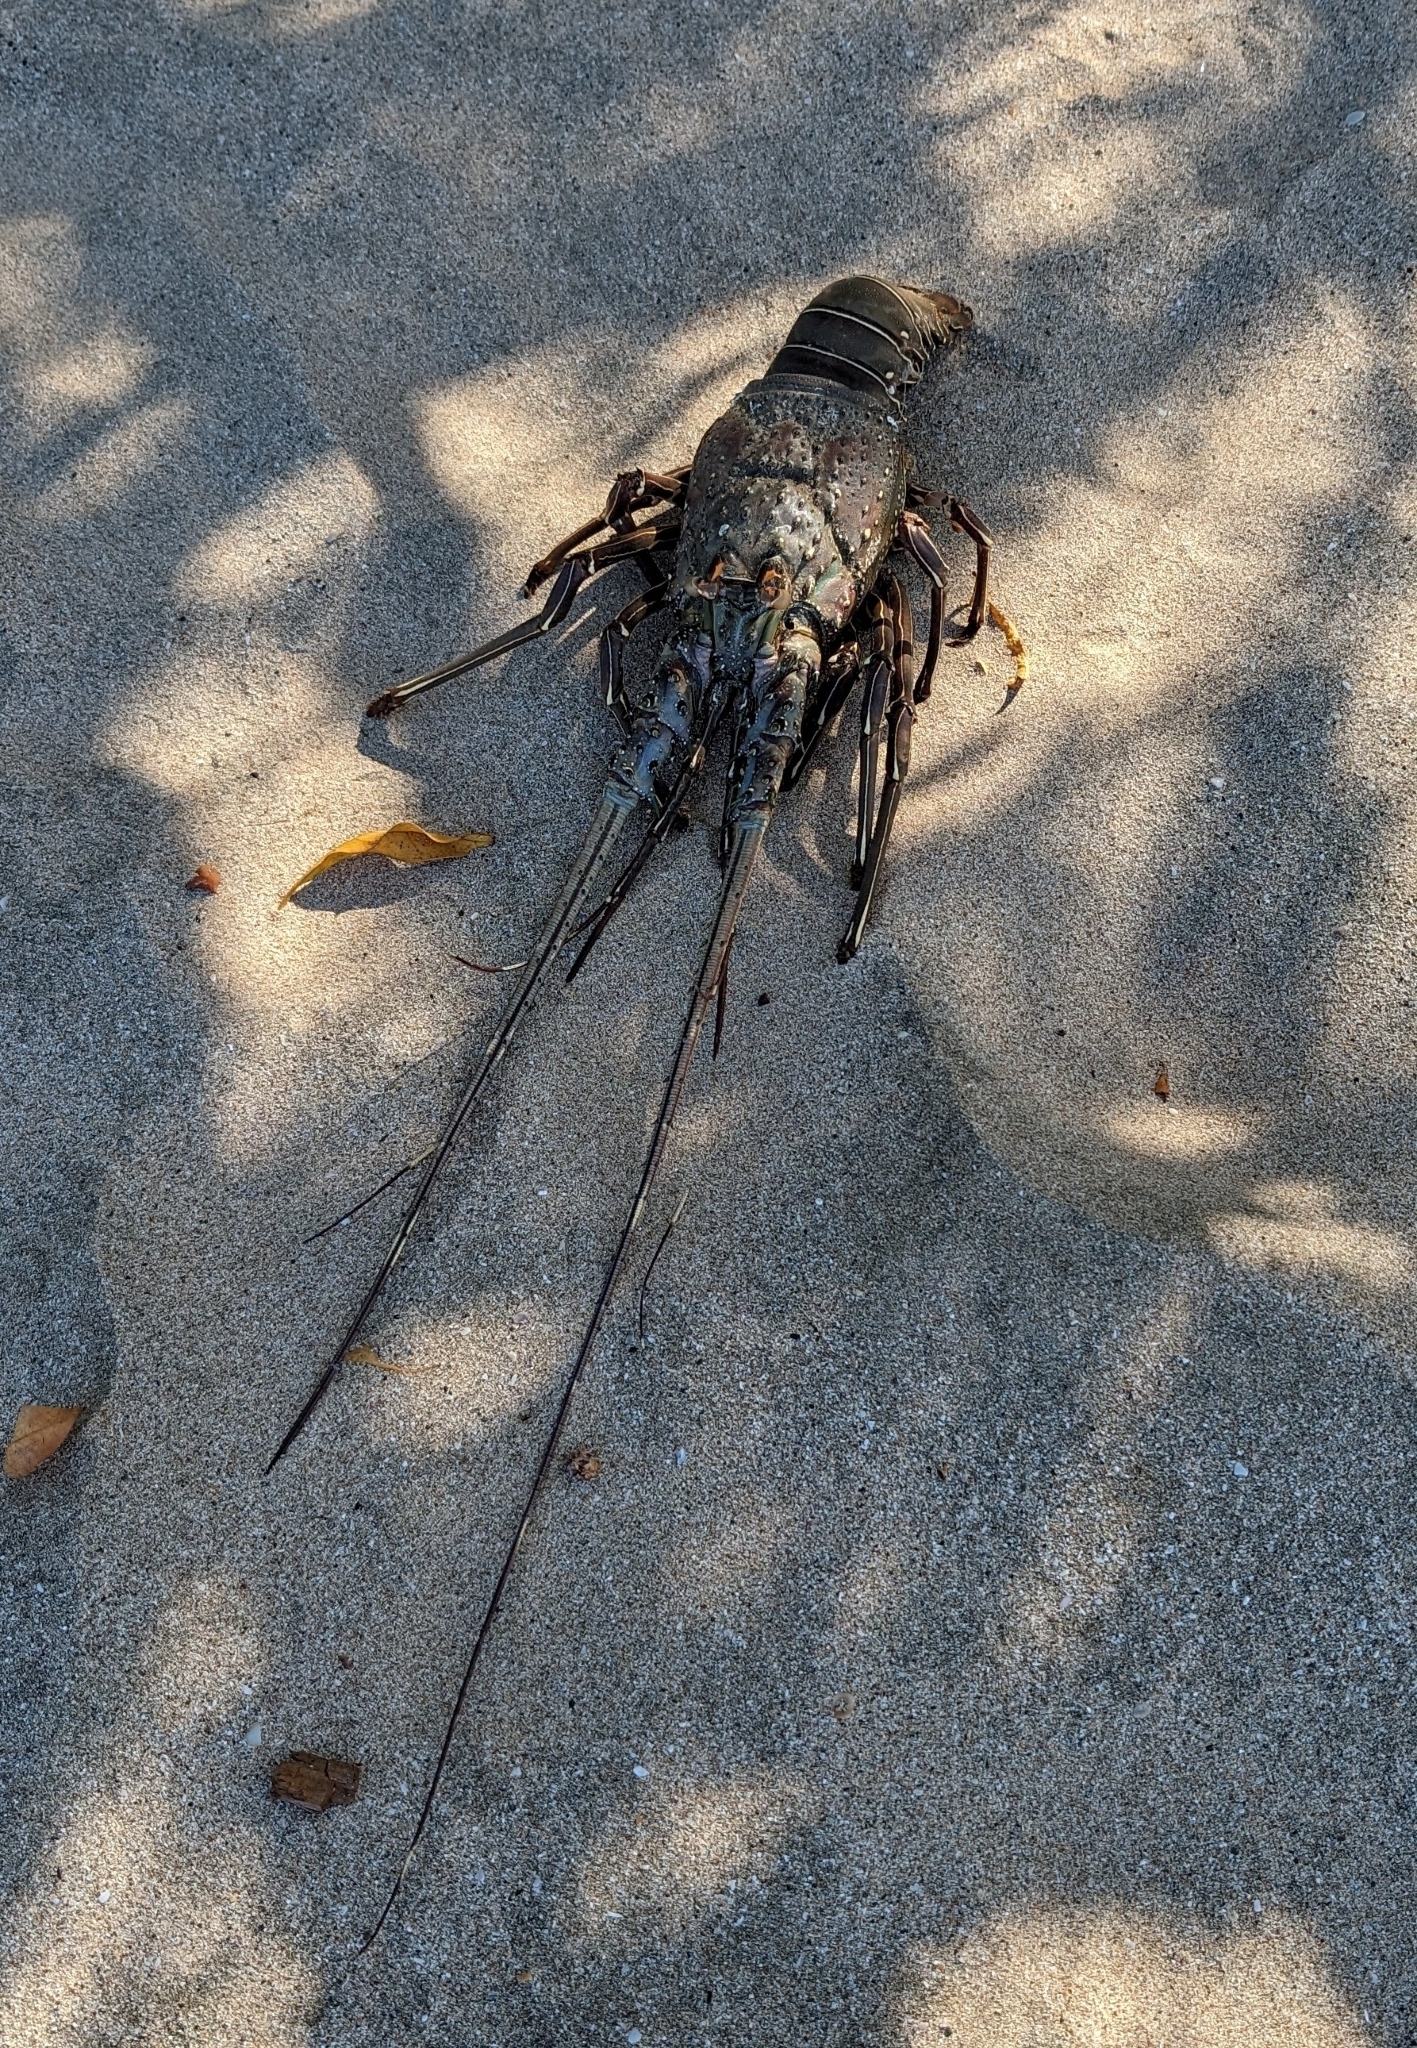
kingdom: Animalia
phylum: Arthropoda
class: Malacostraca
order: Decapoda
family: Palinuridae
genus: Panulirus
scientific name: Panulirus gracilis
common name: Green spiny lobster
